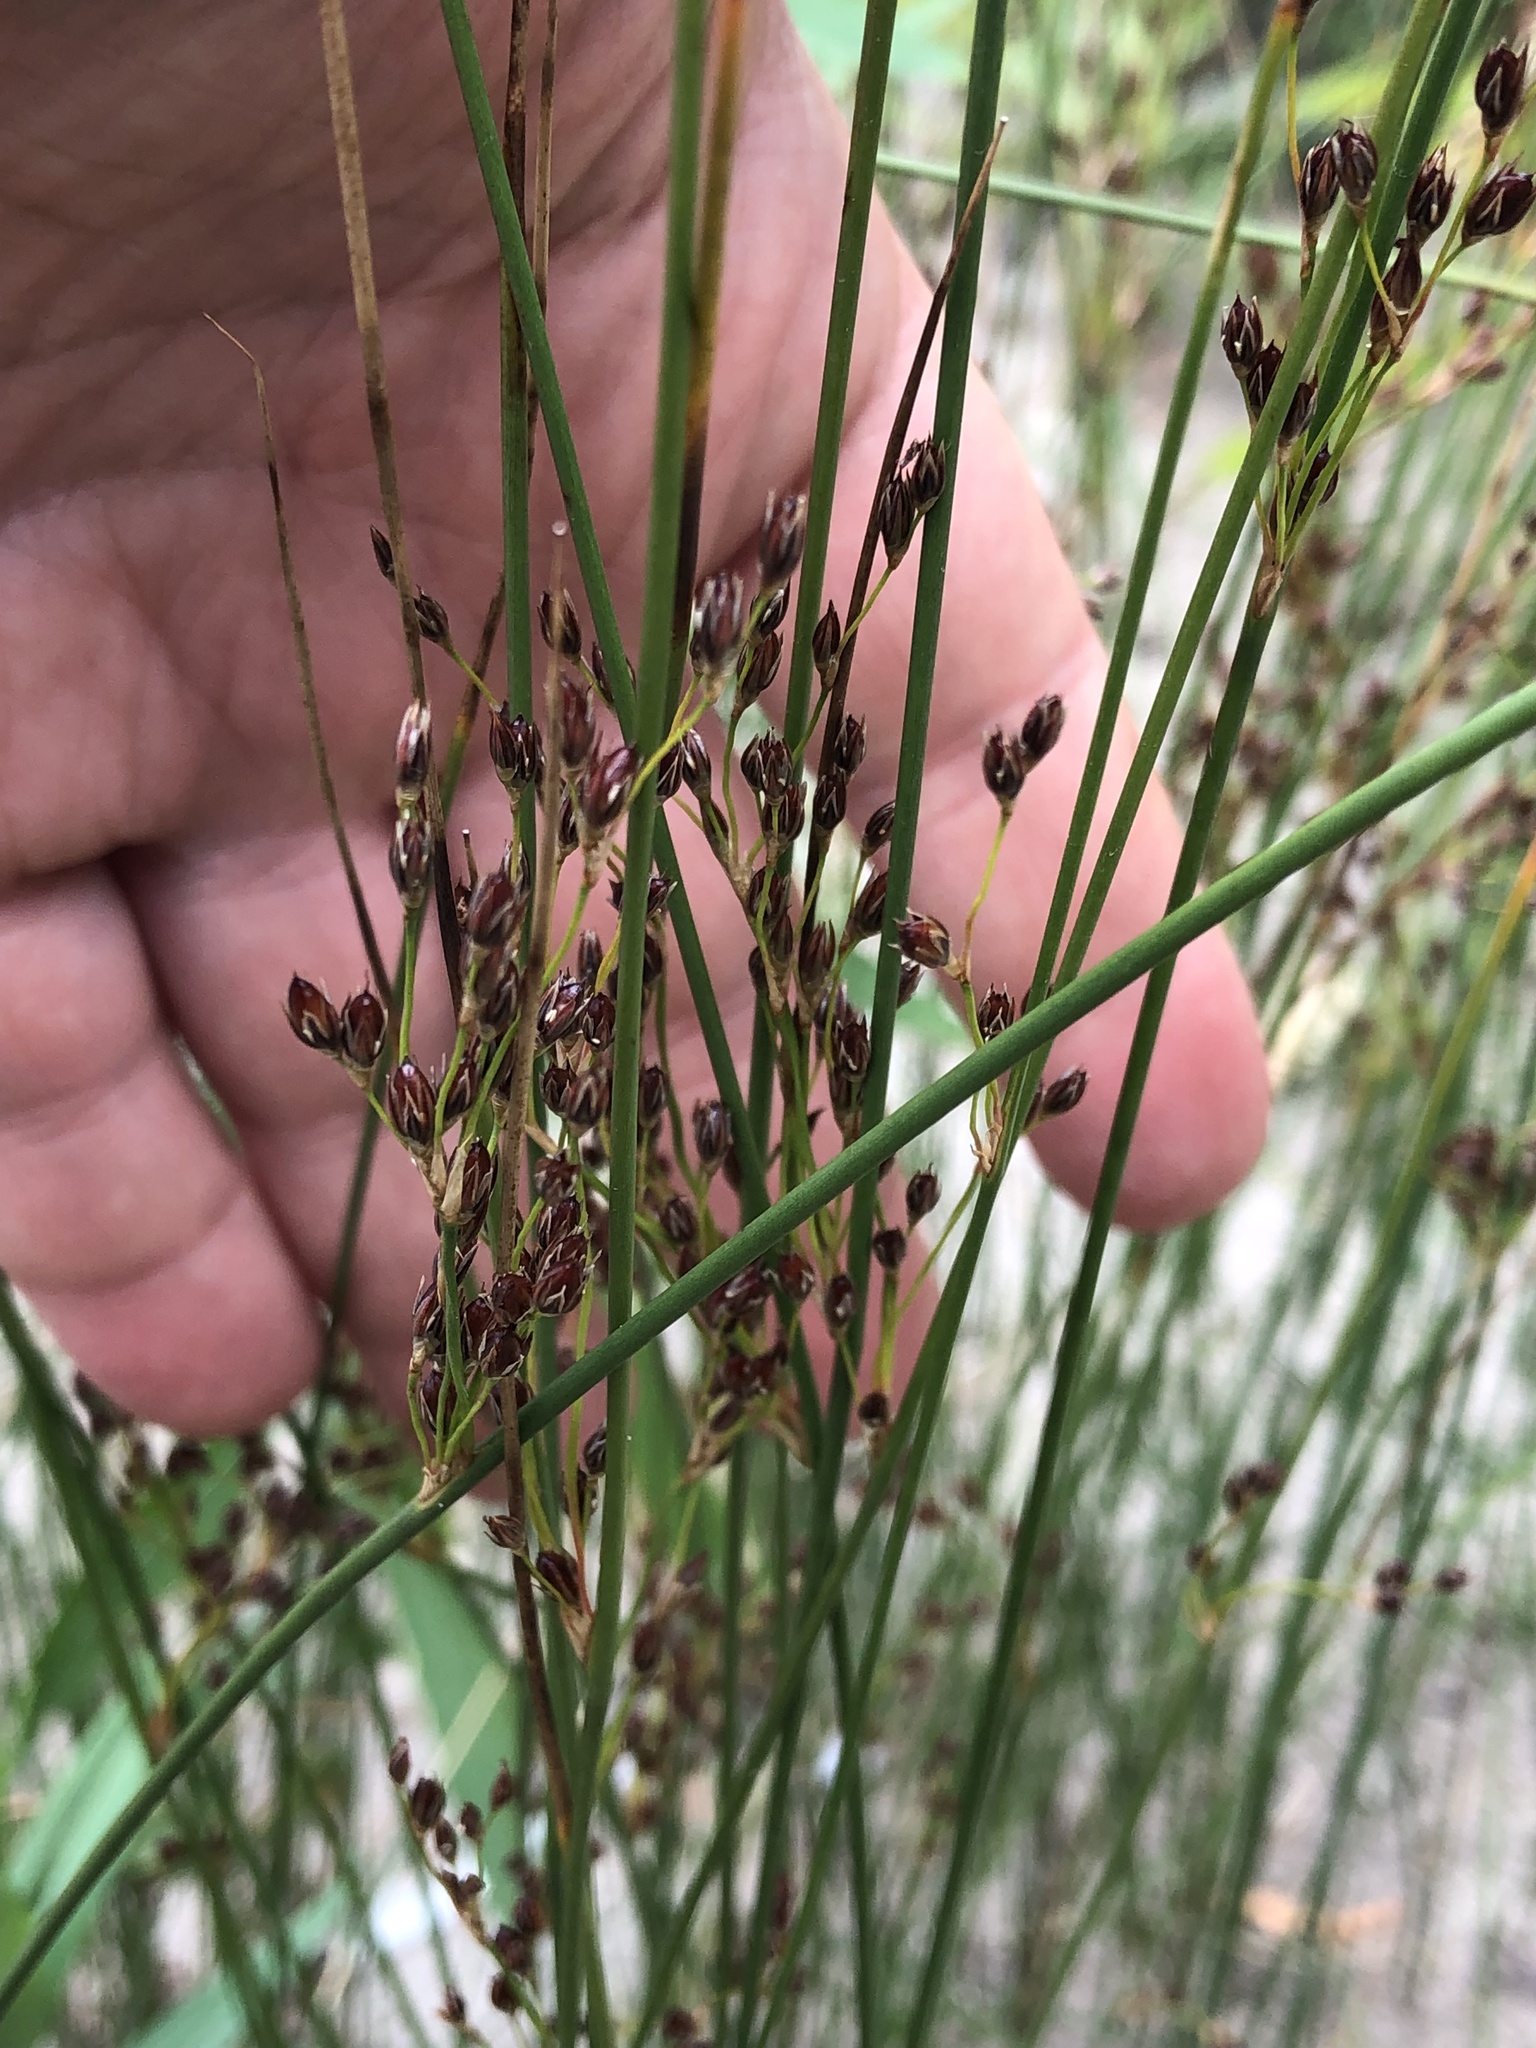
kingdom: Plantae
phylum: Tracheophyta
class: Liliopsida
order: Poales
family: Juncaceae
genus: Juncus
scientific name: Juncus balticus
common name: Baltic rush
